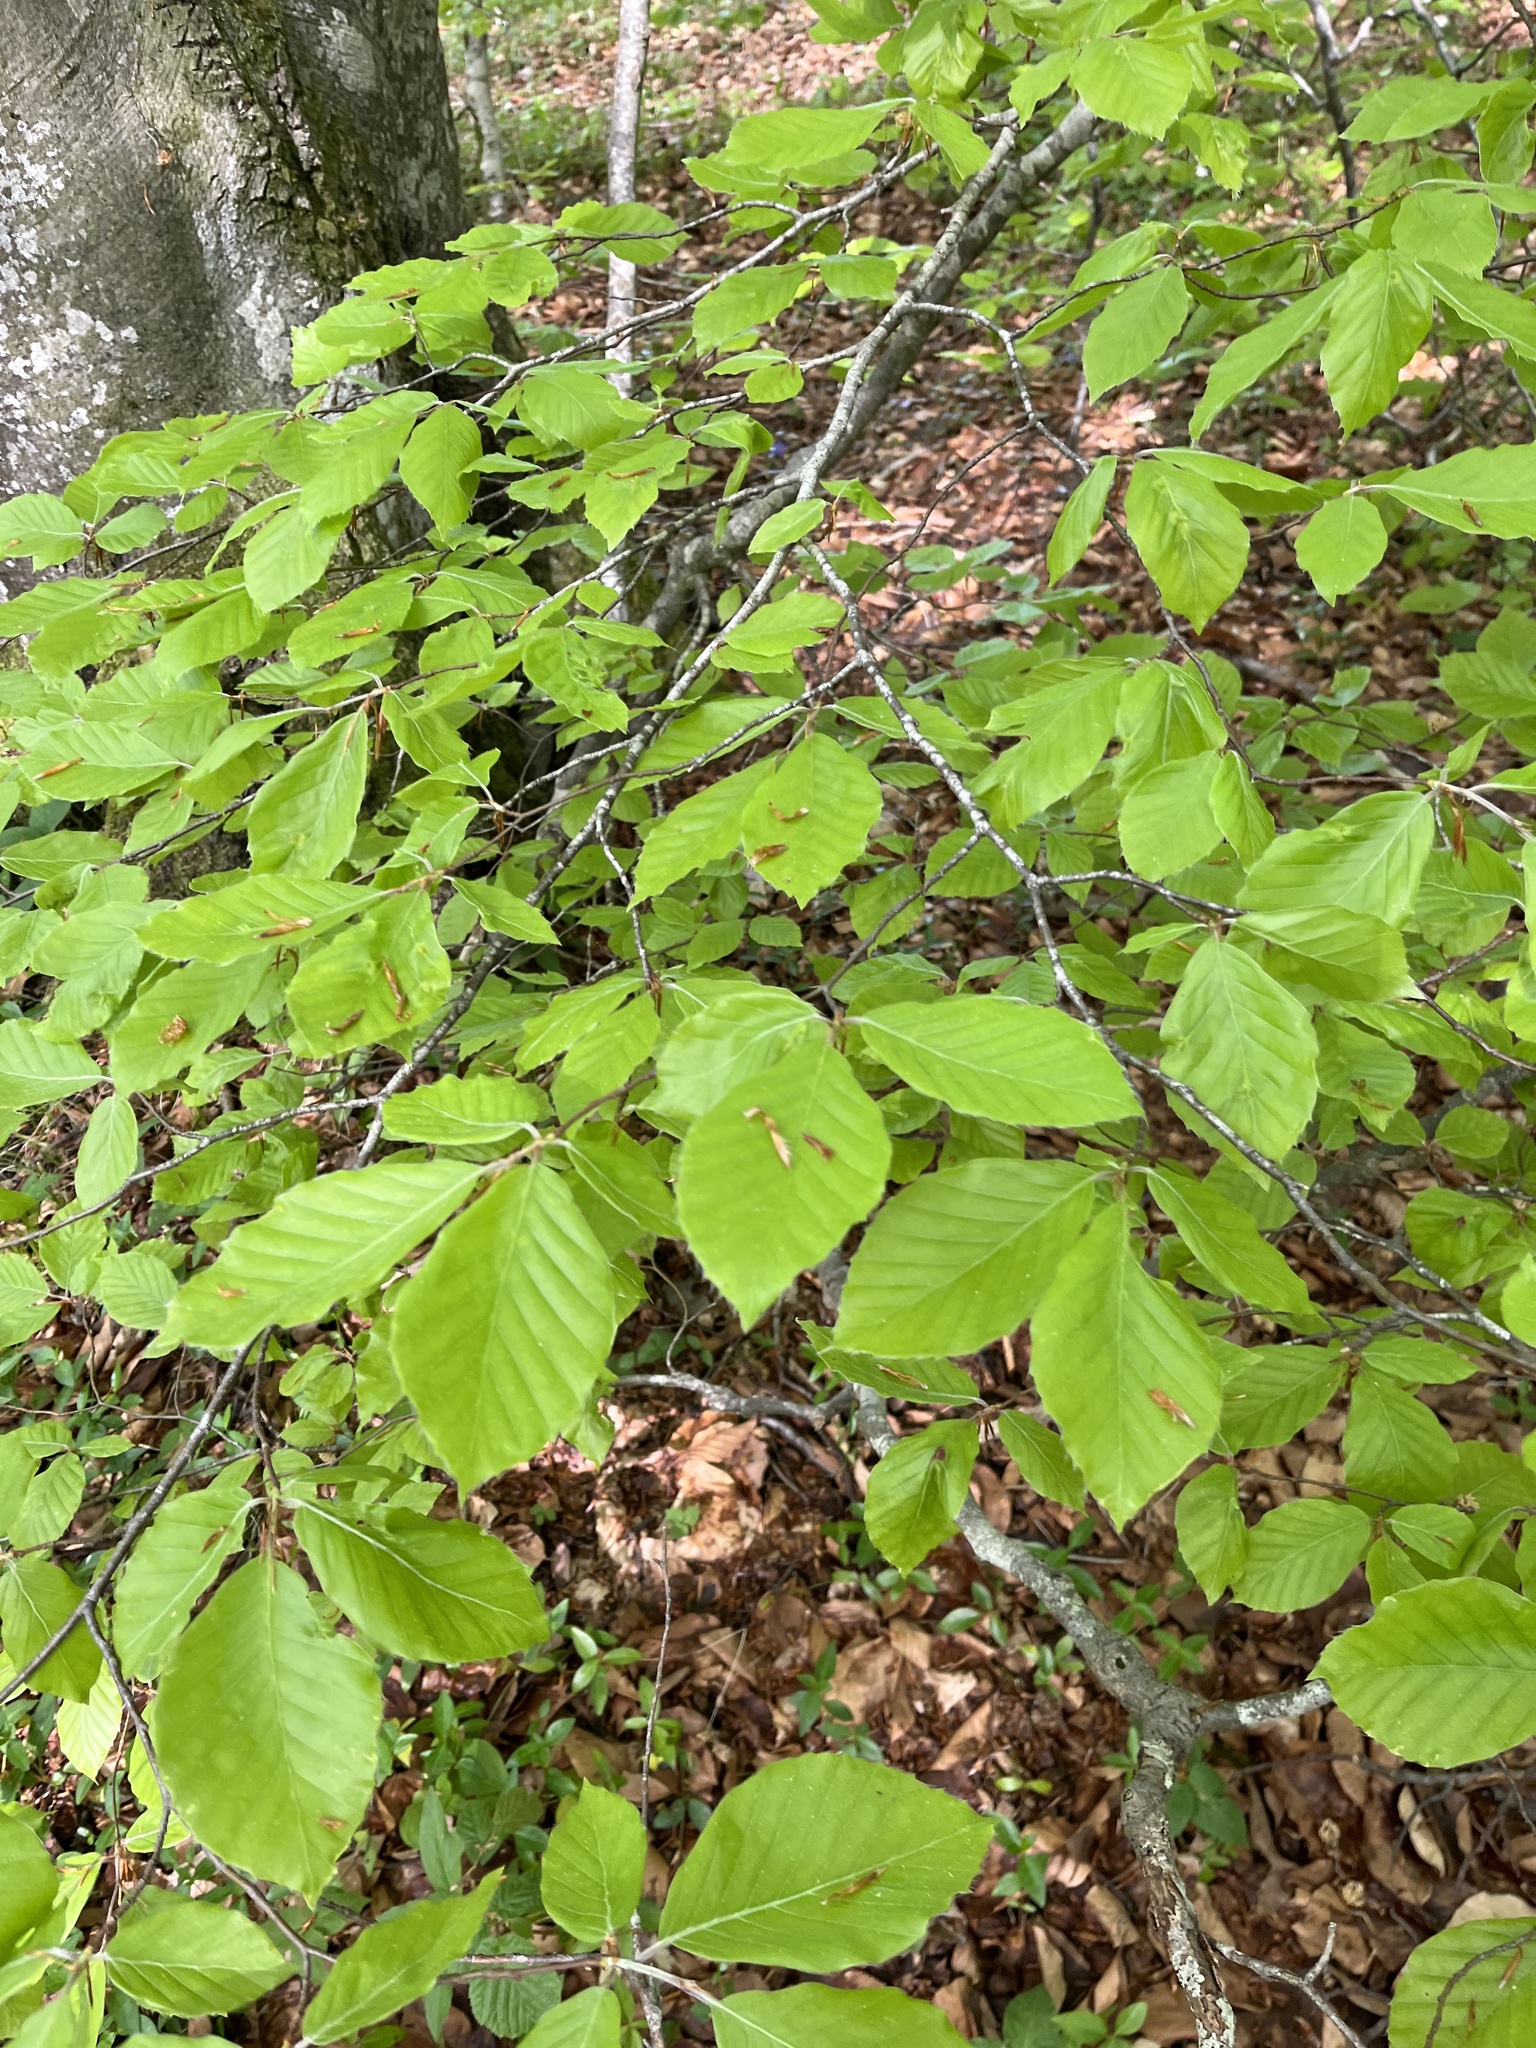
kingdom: Plantae
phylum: Tracheophyta
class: Magnoliopsida
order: Fagales
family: Fagaceae
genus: Fagus
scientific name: Fagus sylvatica
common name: Beech
